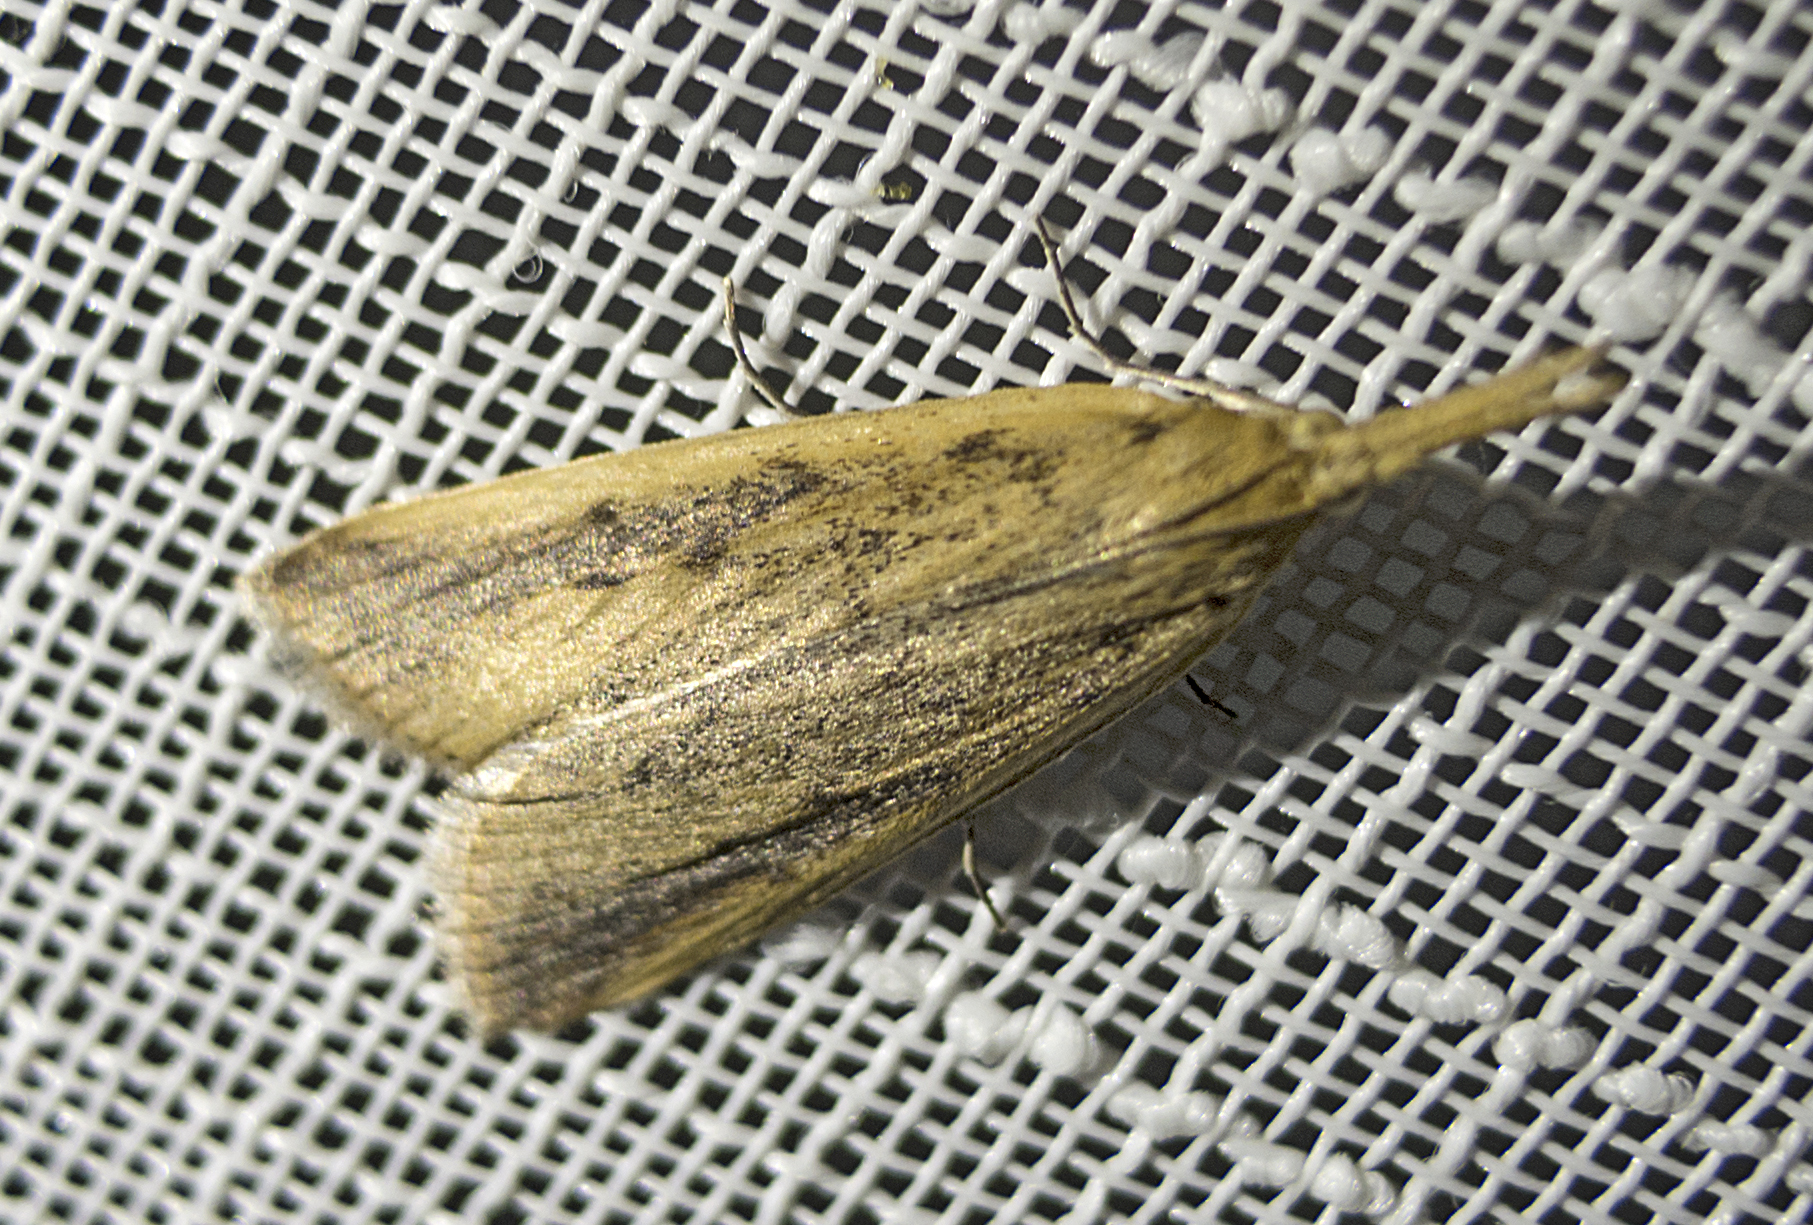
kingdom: Animalia
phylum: Arthropoda
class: Insecta
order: Lepidoptera
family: Crambidae
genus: Schoenobius
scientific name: Schoenobius gigantella
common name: Giant water-veneer
